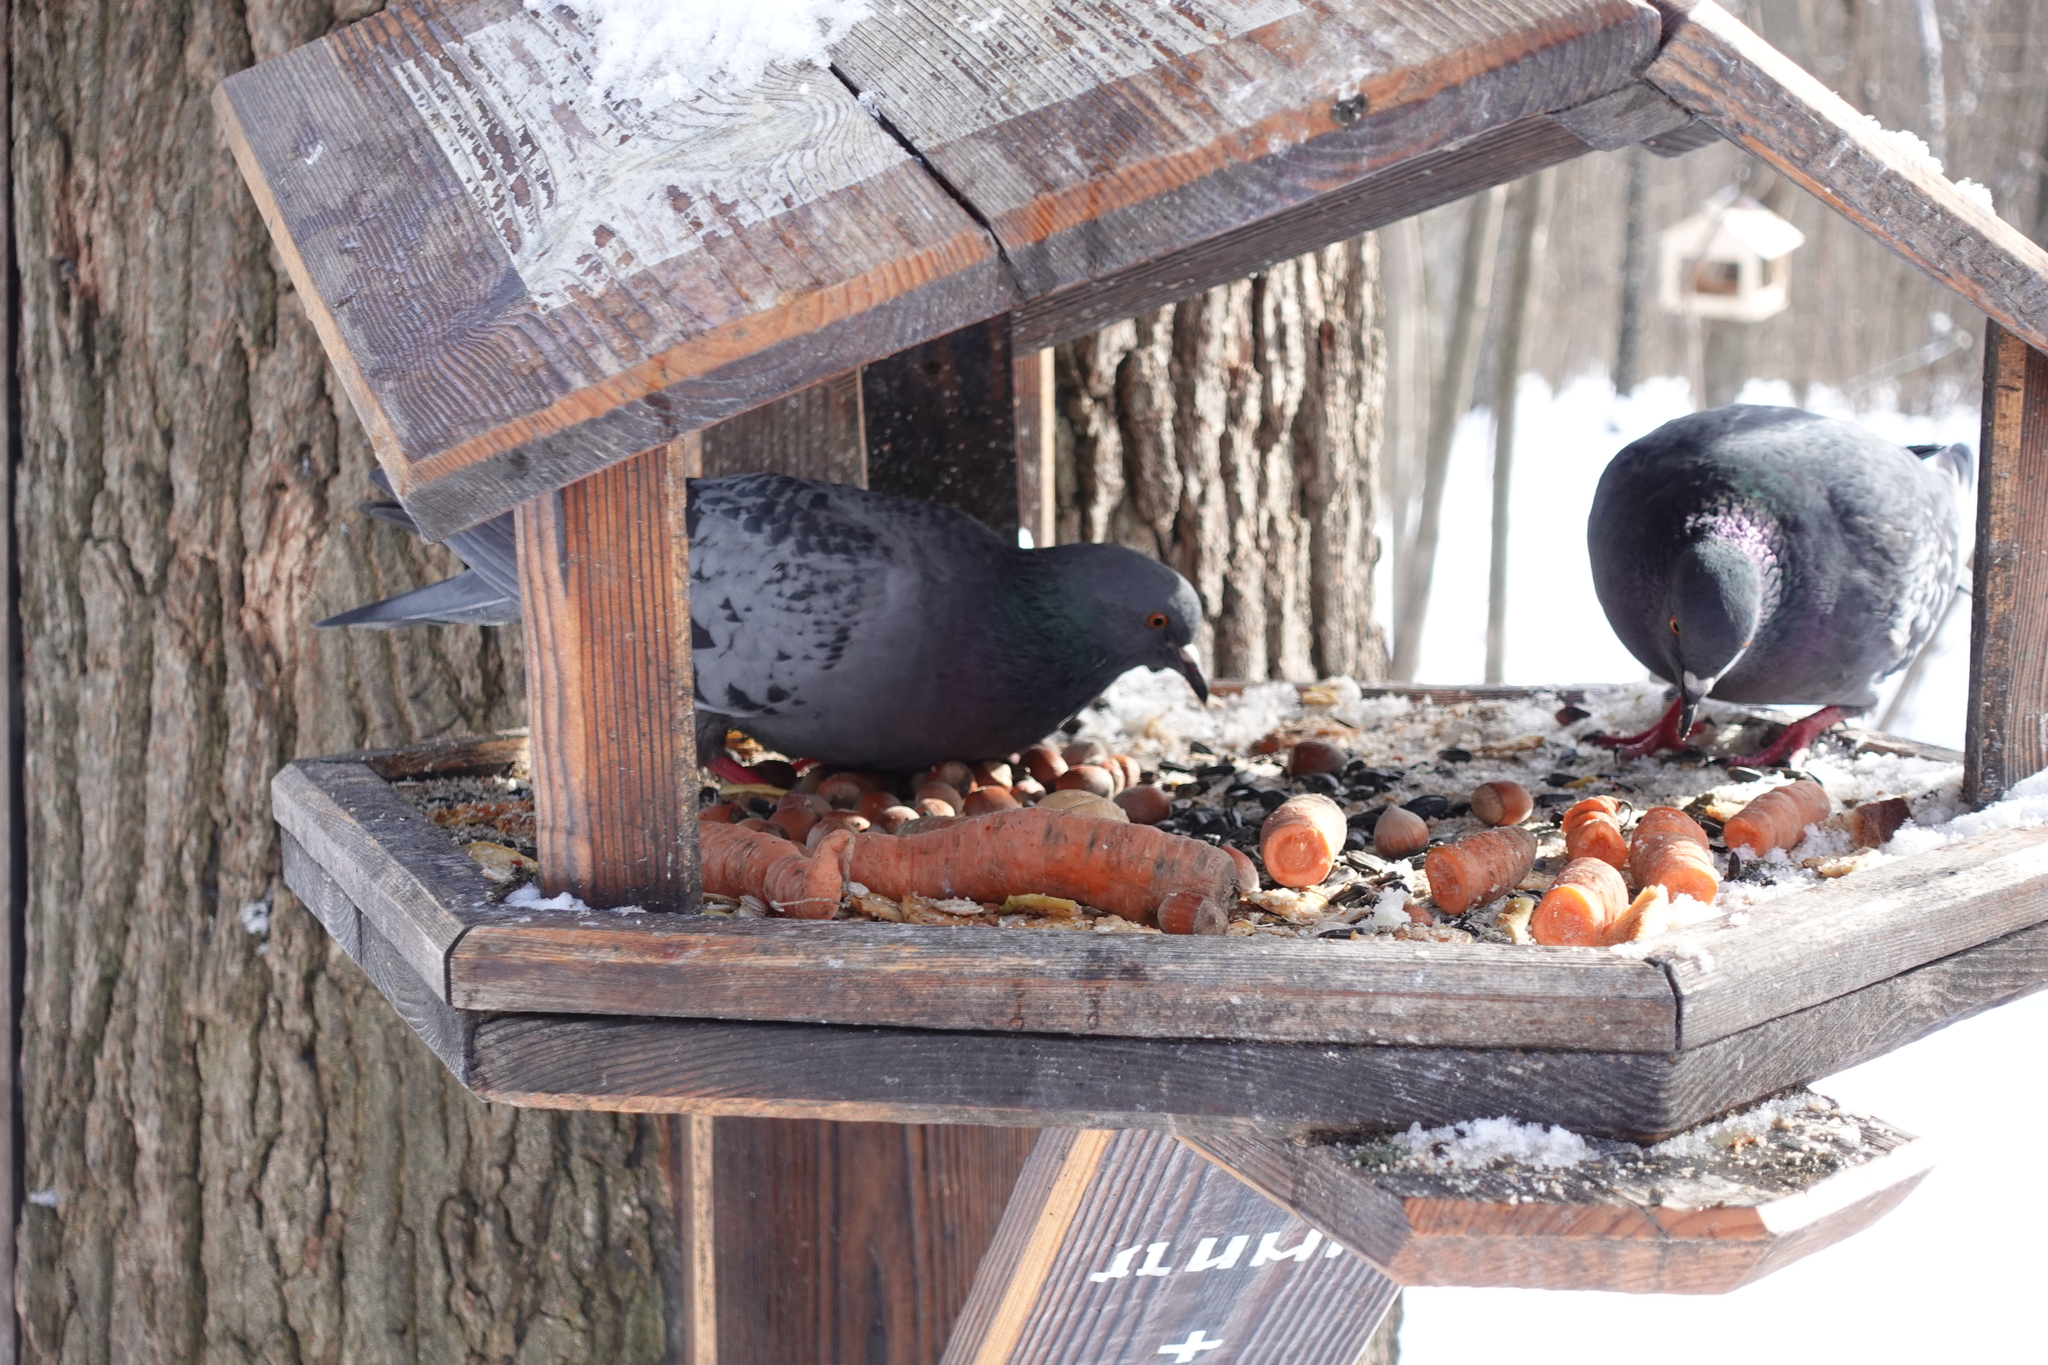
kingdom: Animalia
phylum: Chordata
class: Aves
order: Columbiformes
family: Columbidae
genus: Columba
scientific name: Columba livia
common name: Rock pigeon
